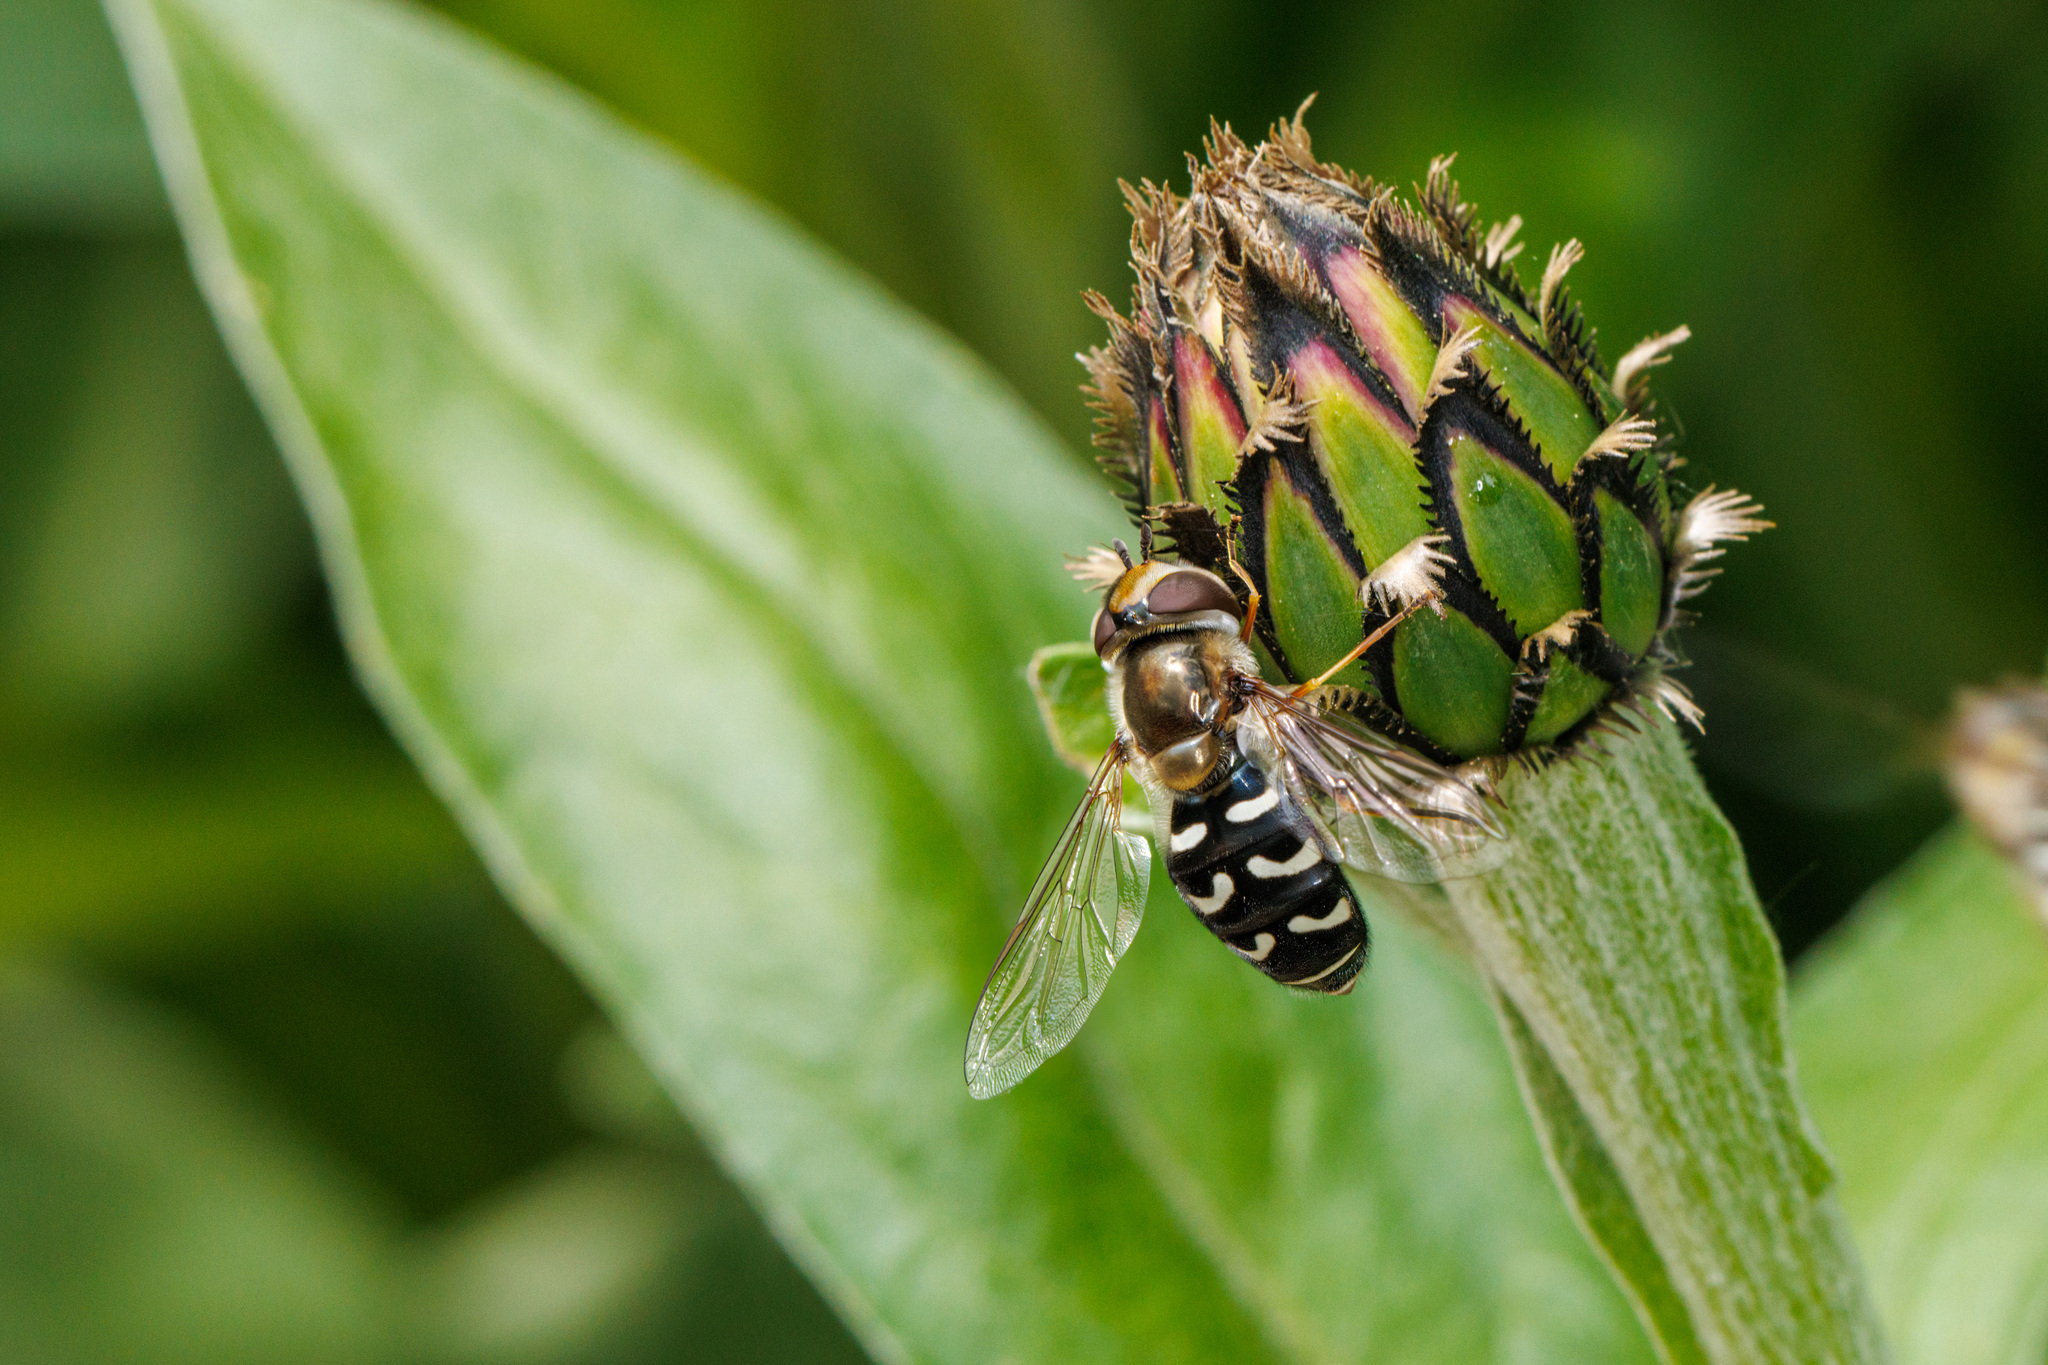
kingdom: Animalia
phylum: Arthropoda
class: Insecta
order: Diptera
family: Syrphidae
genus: Scaeva
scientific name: Scaeva affinis
